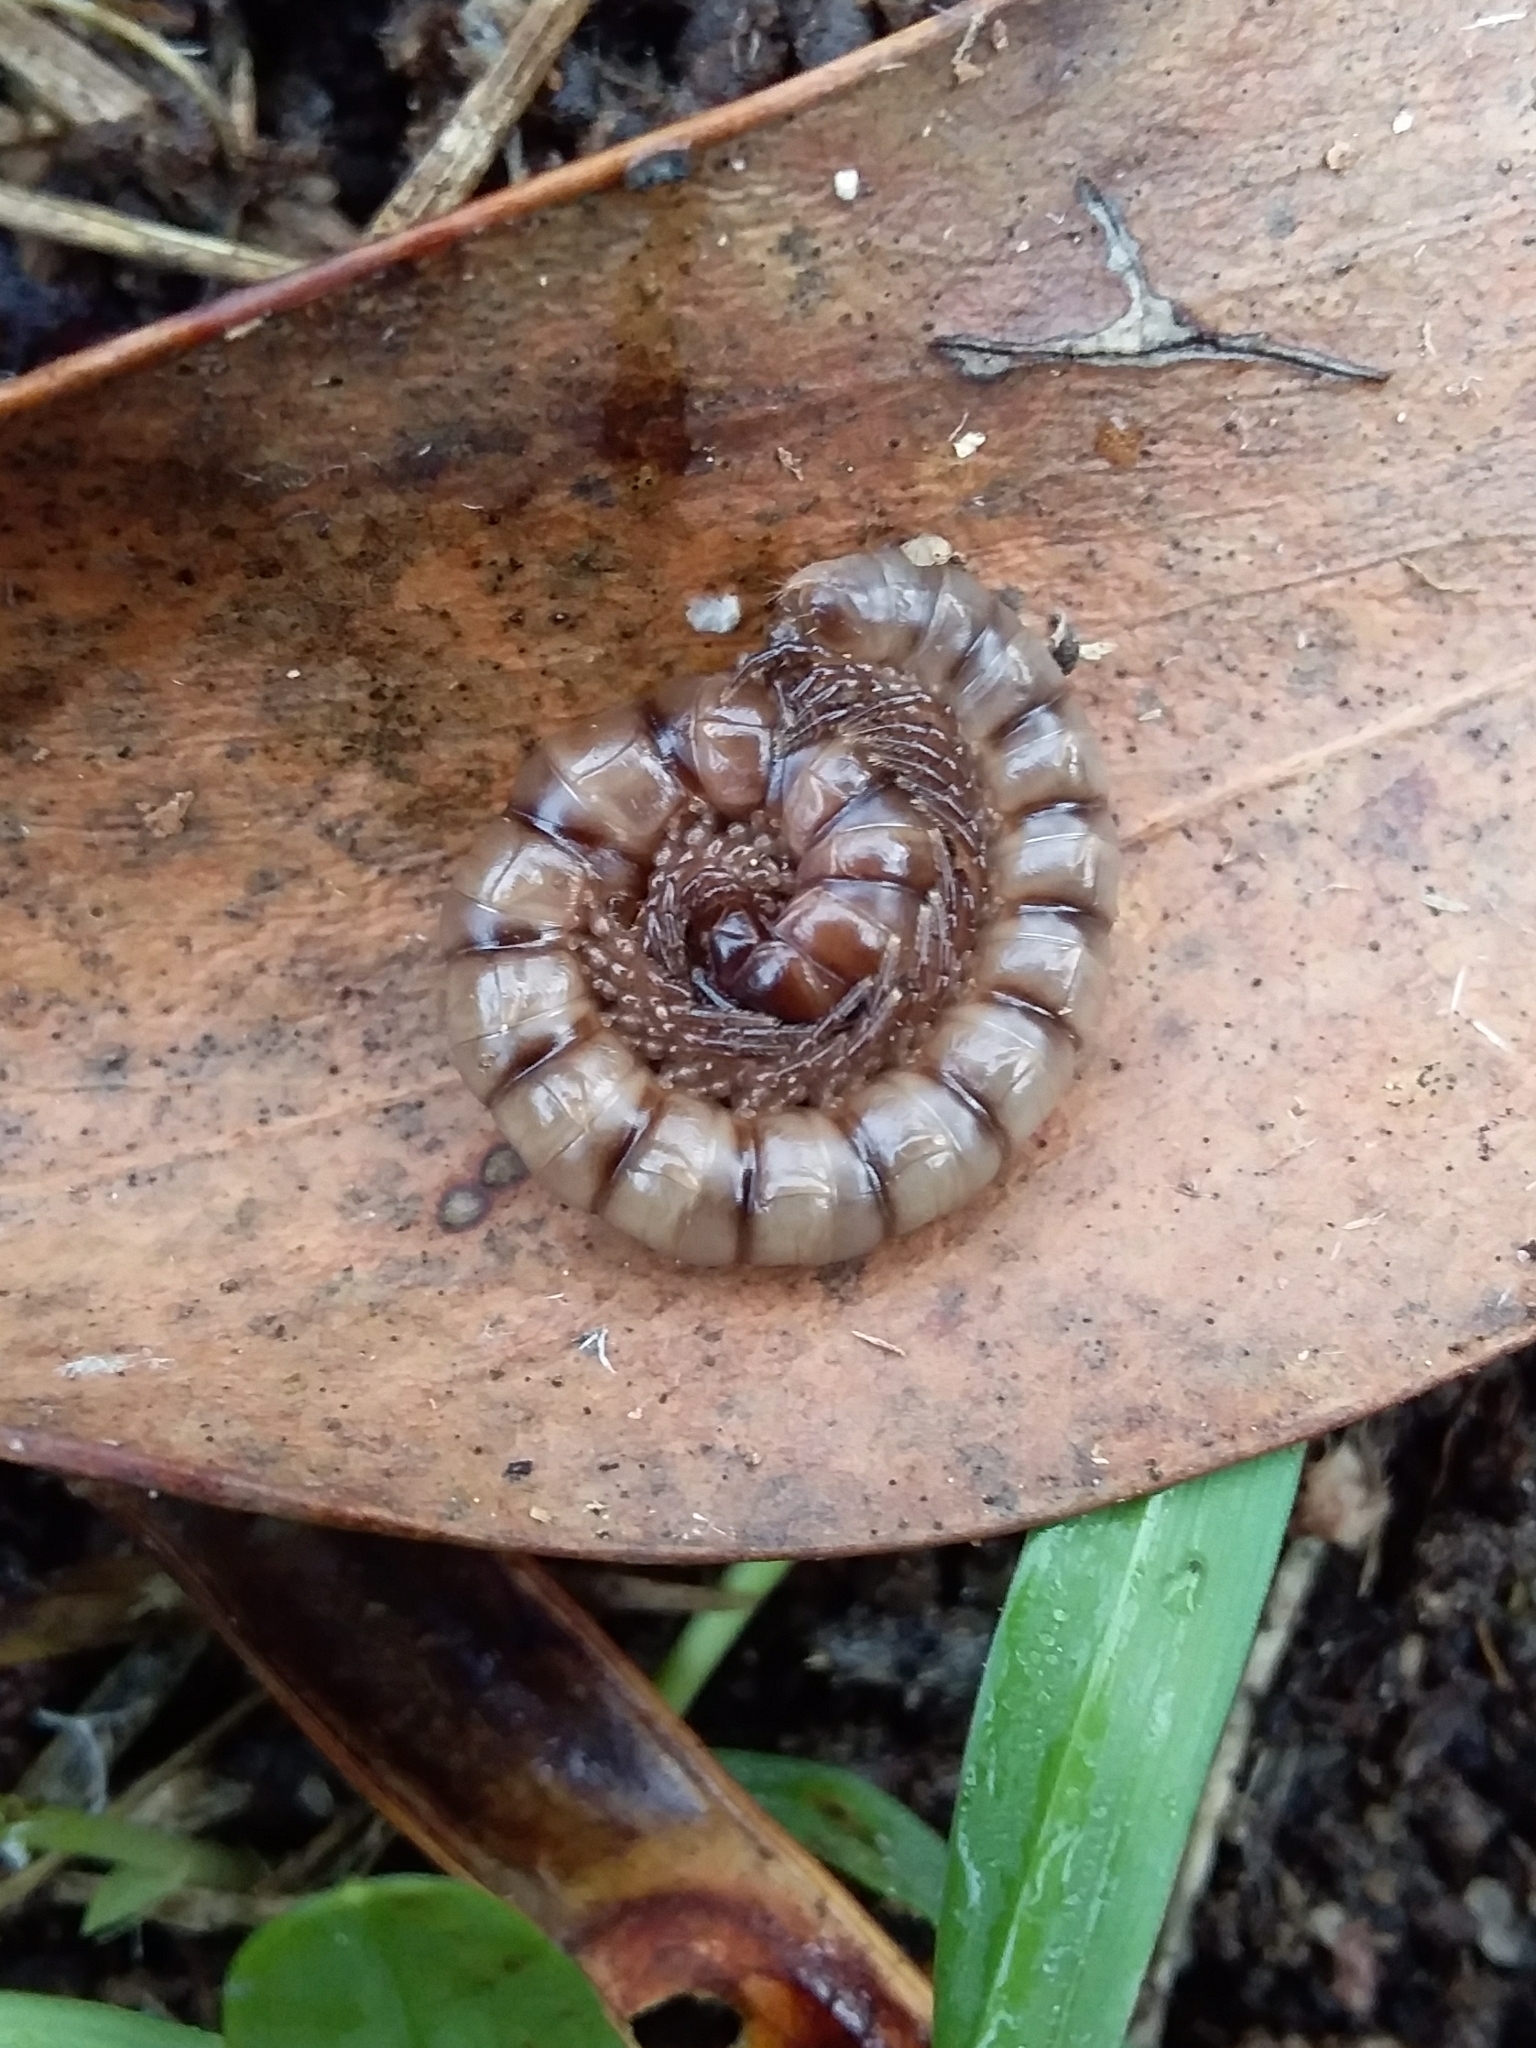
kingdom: Animalia
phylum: Arthropoda
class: Diplopoda
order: Polydesmida
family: Paradoxosomatidae
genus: Somethus
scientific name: Somethus castaneus
